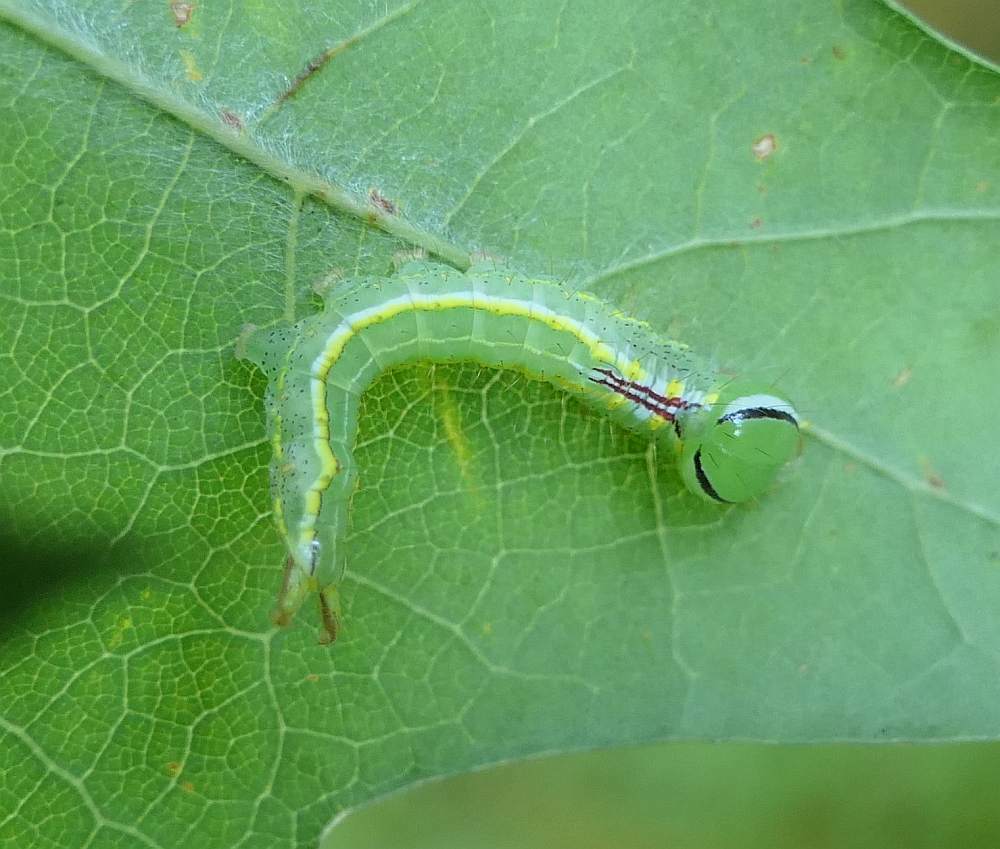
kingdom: Animalia
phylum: Arthropoda
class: Insecta
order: Lepidoptera
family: Notodontidae
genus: Lochmaeus
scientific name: Lochmaeus manteo
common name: Variable oakleaf caterpillar moth
